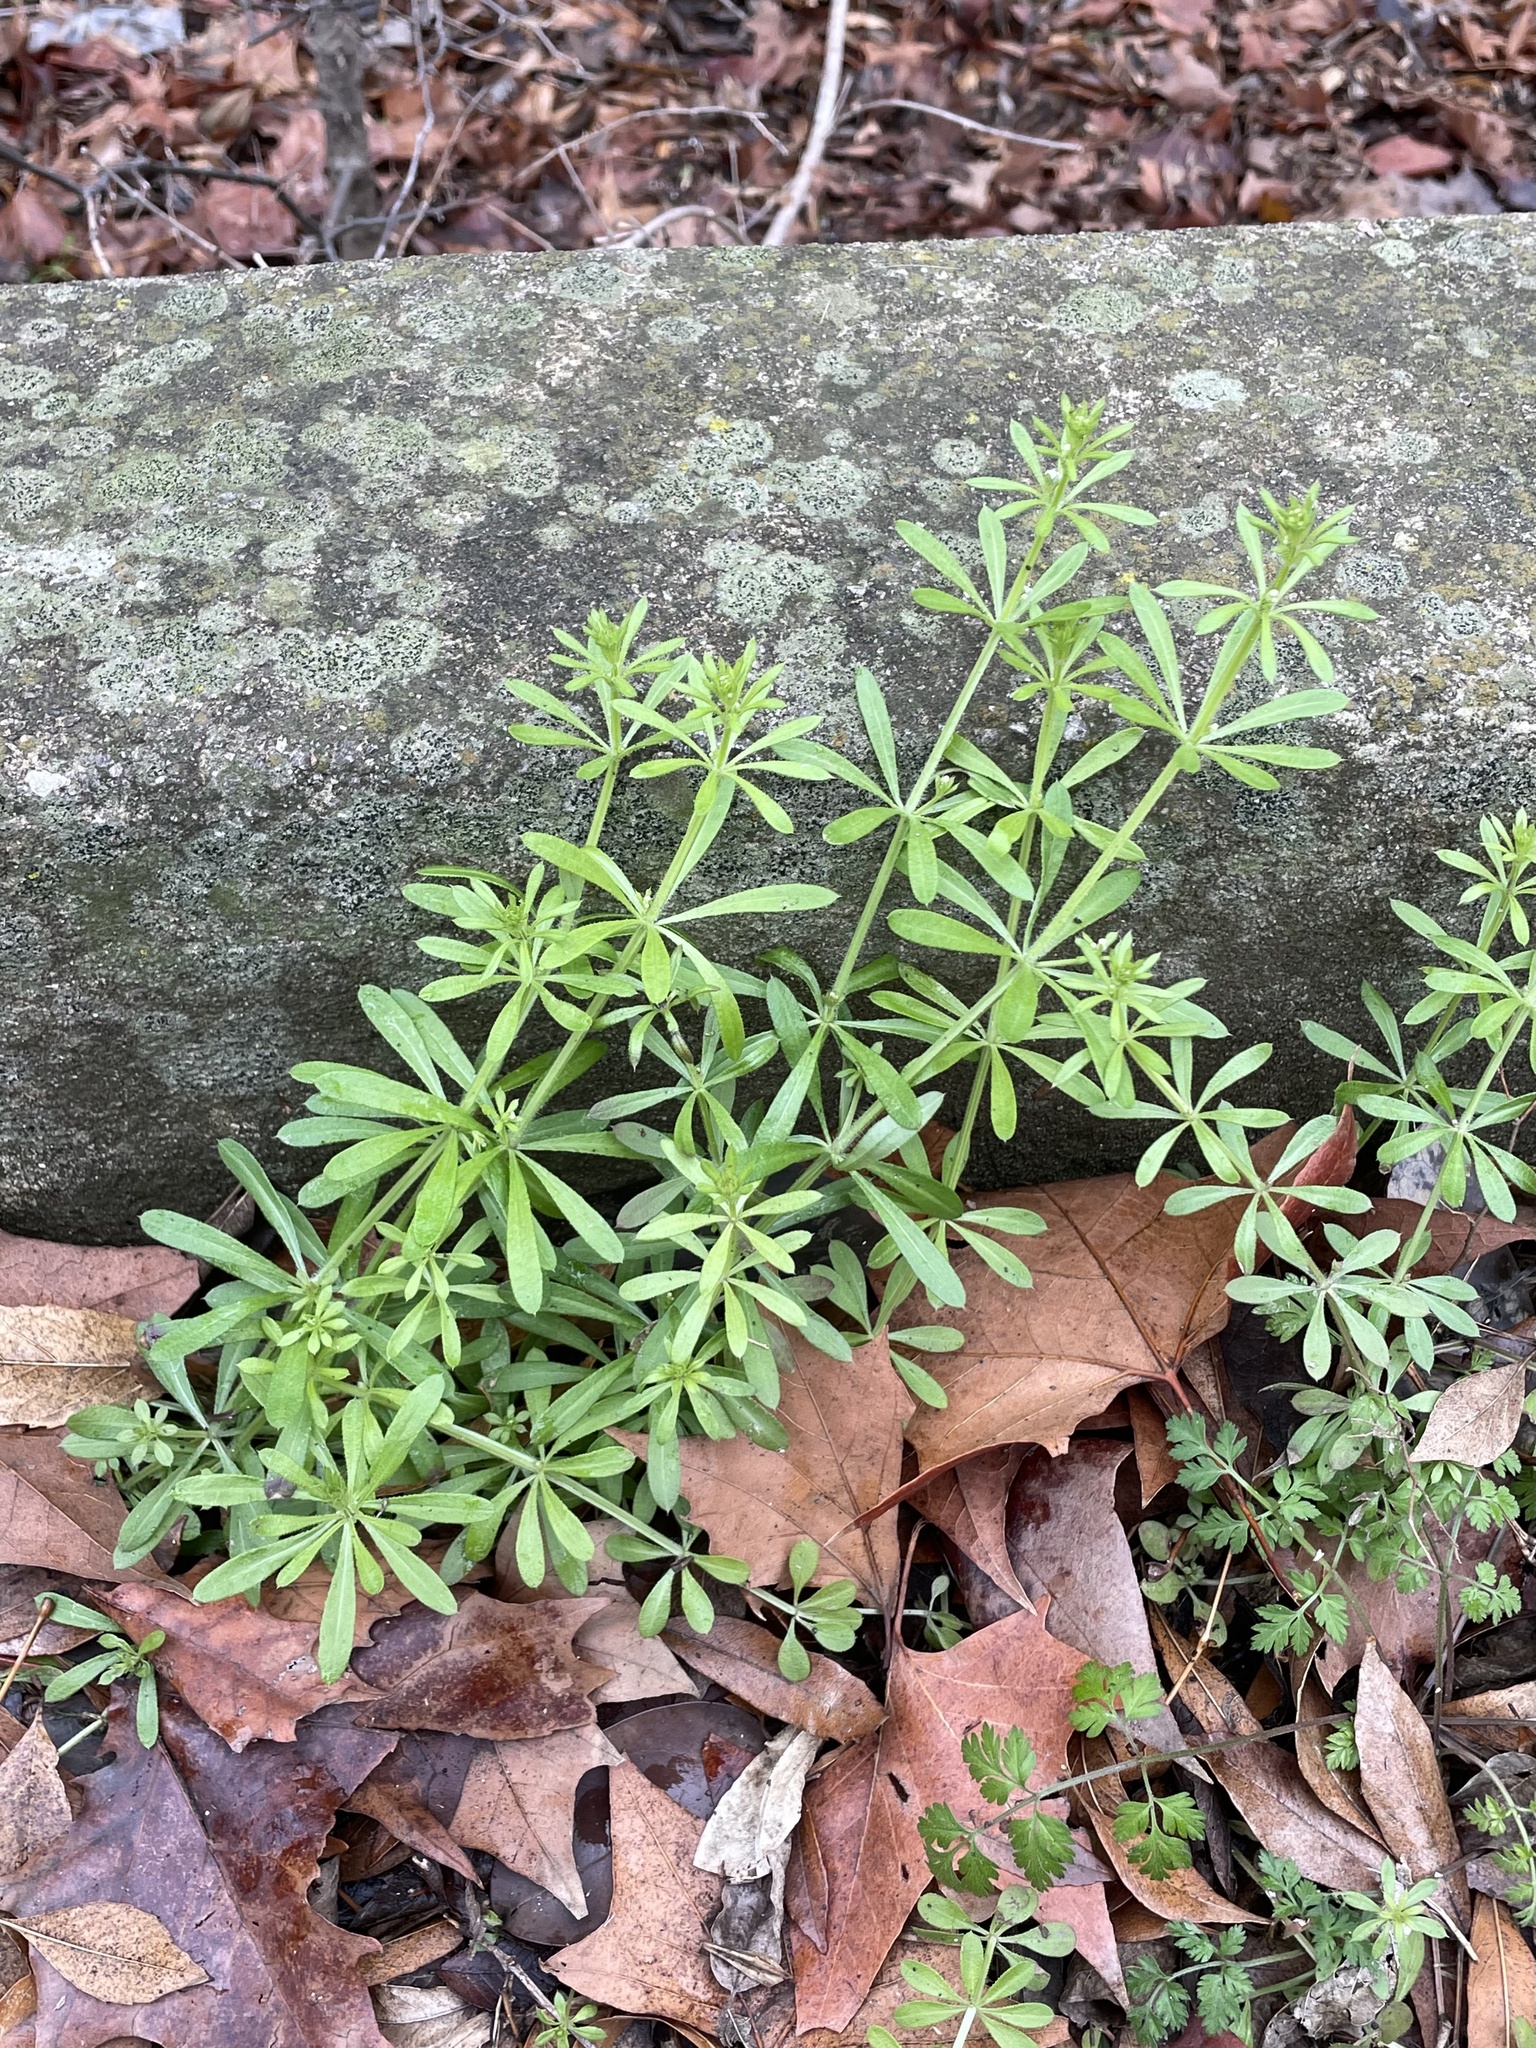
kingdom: Plantae
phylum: Tracheophyta
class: Magnoliopsida
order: Gentianales
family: Rubiaceae
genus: Galium
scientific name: Galium aparine
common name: Cleavers
